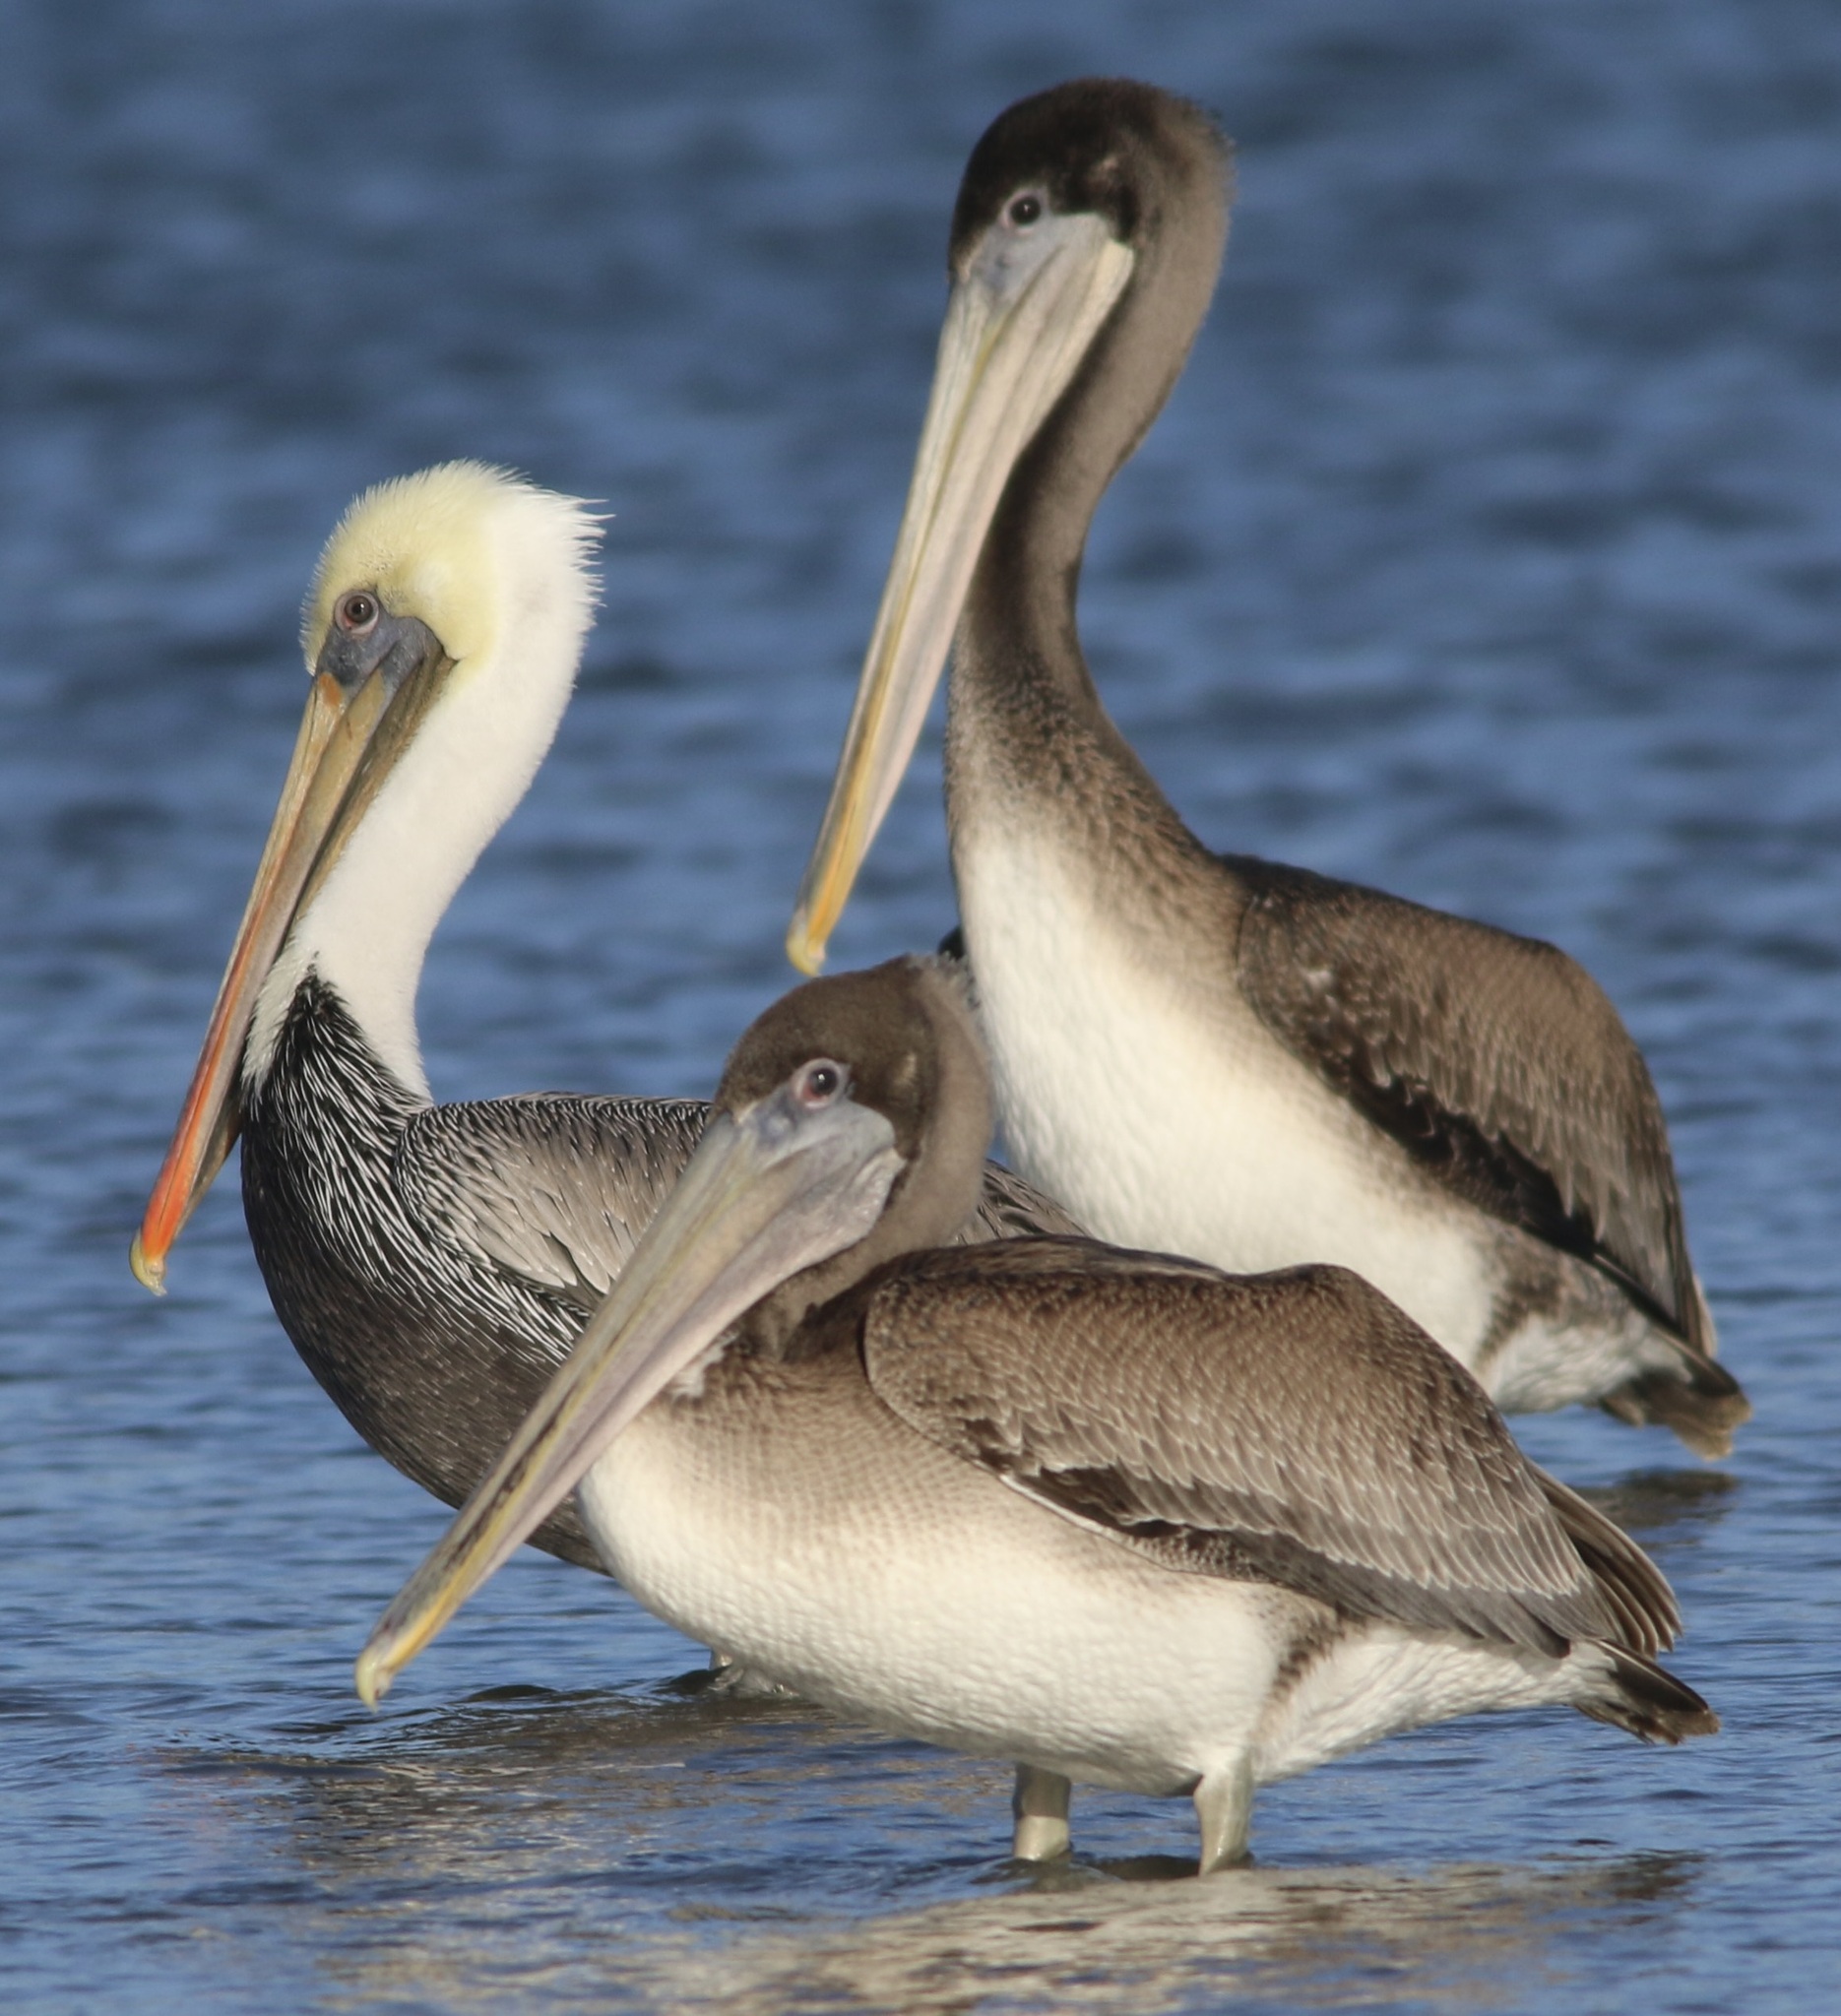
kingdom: Animalia
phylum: Chordata
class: Aves
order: Pelecaniformes
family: Pelecanidae
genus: Pelecanus
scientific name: Pelecanus occidentalis
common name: Brown pelican
